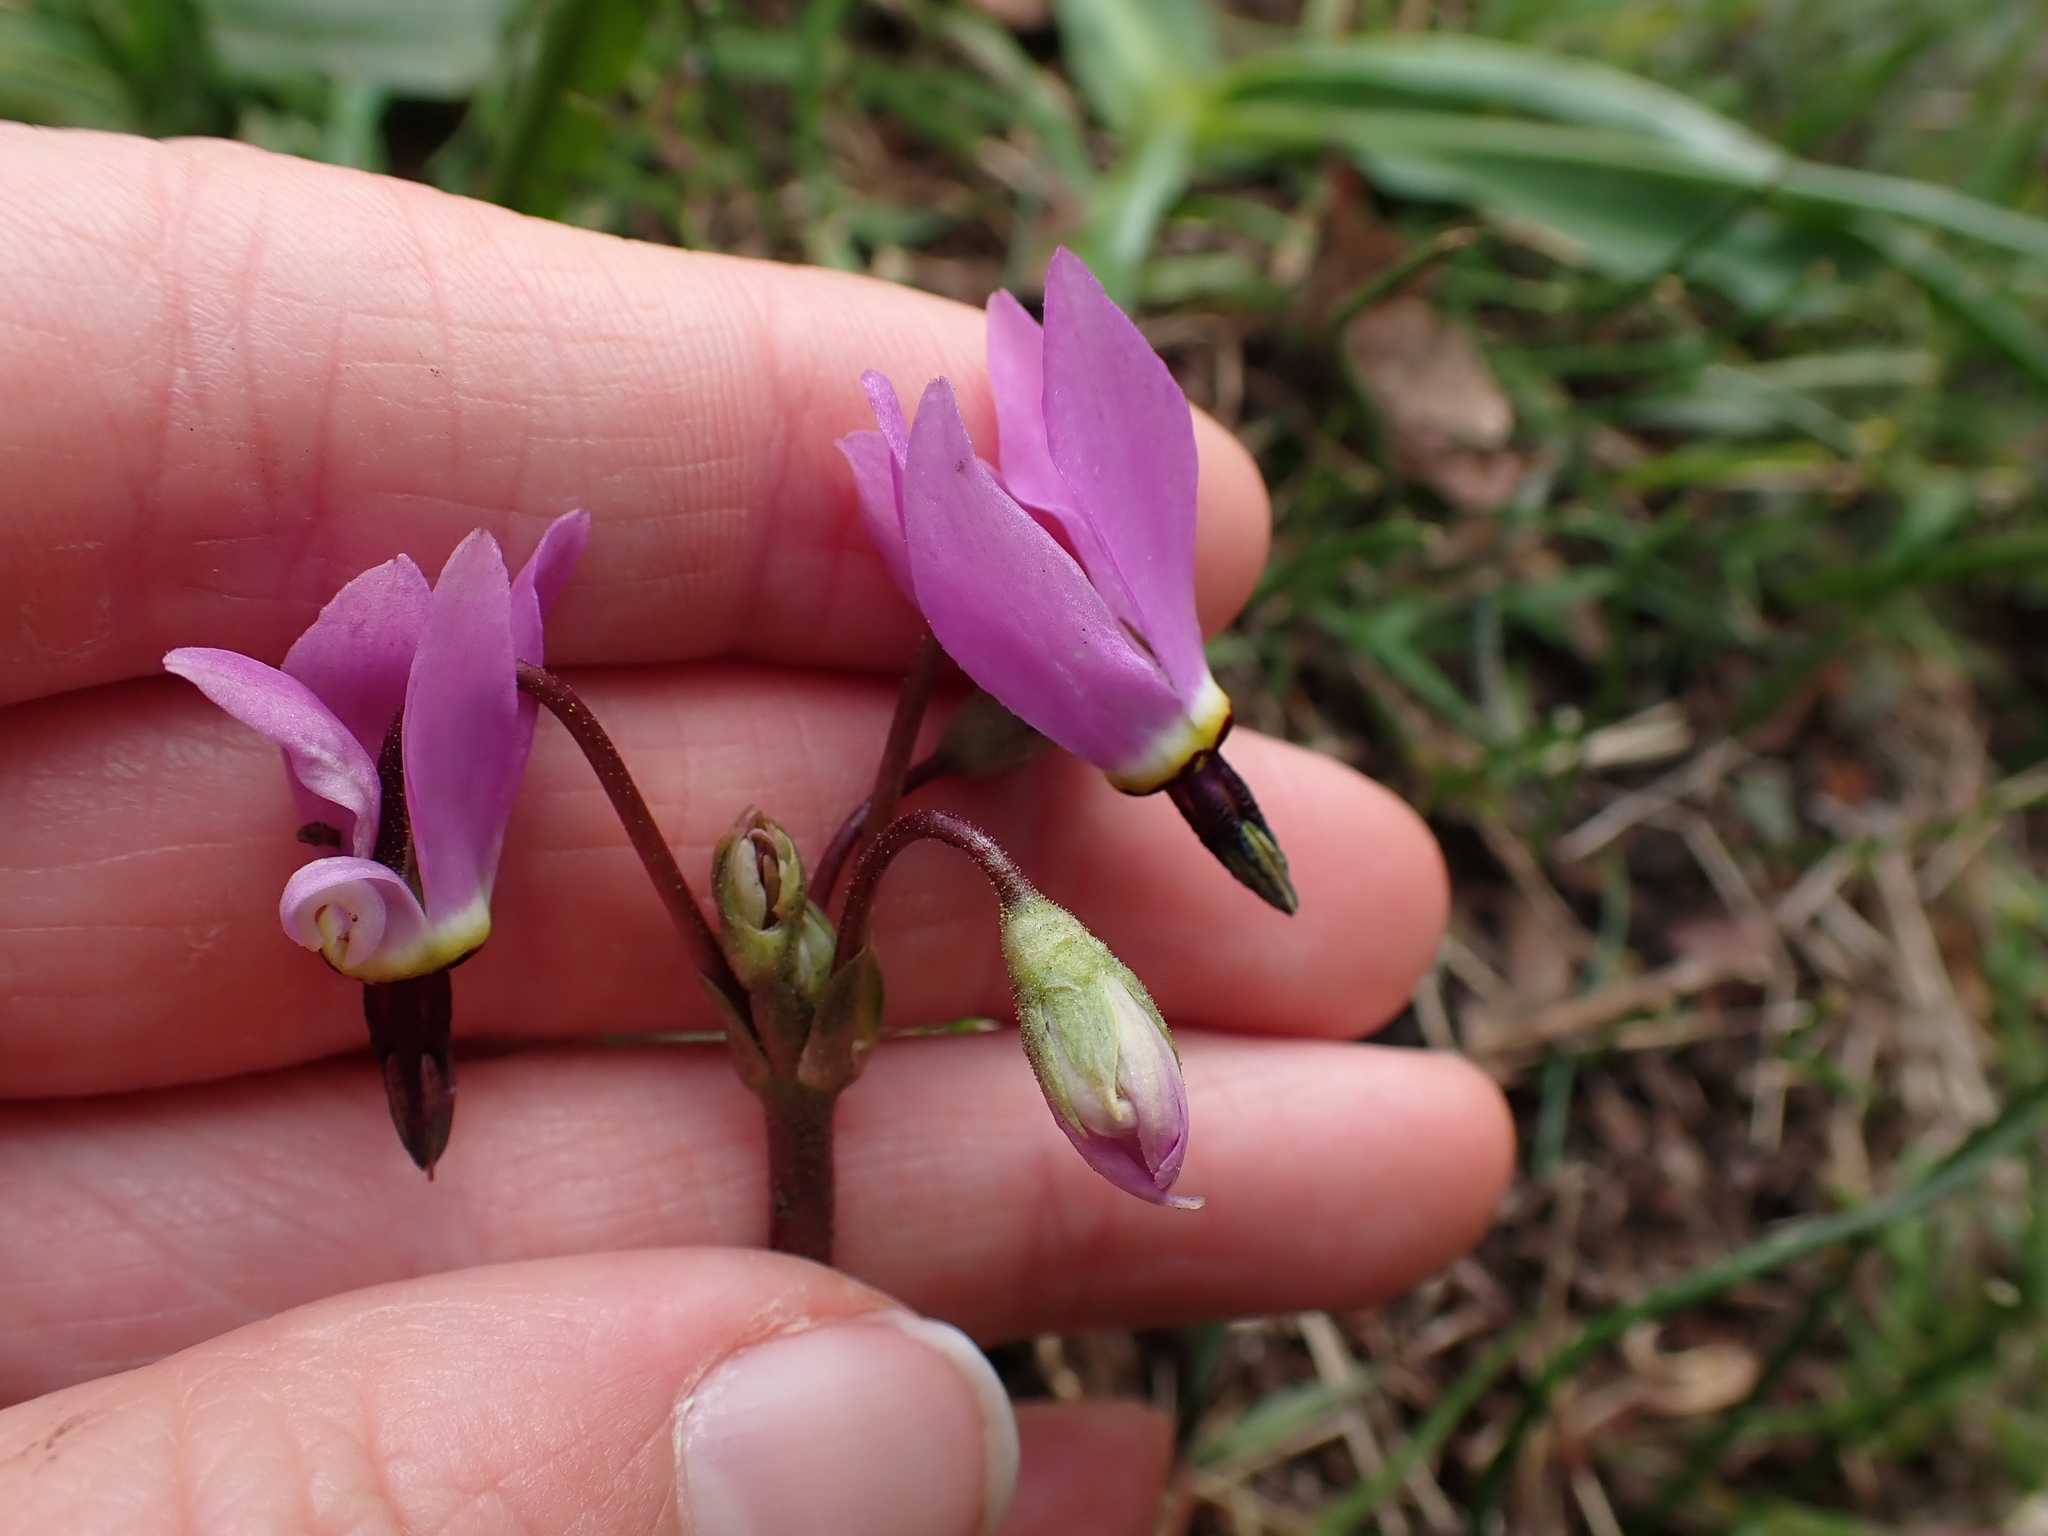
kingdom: Plantae
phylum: Tracheophyta
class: Magnoliopsida
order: Ericales
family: Primulaceae
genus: Dodecatheon
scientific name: Dodecatheon hendersonii
